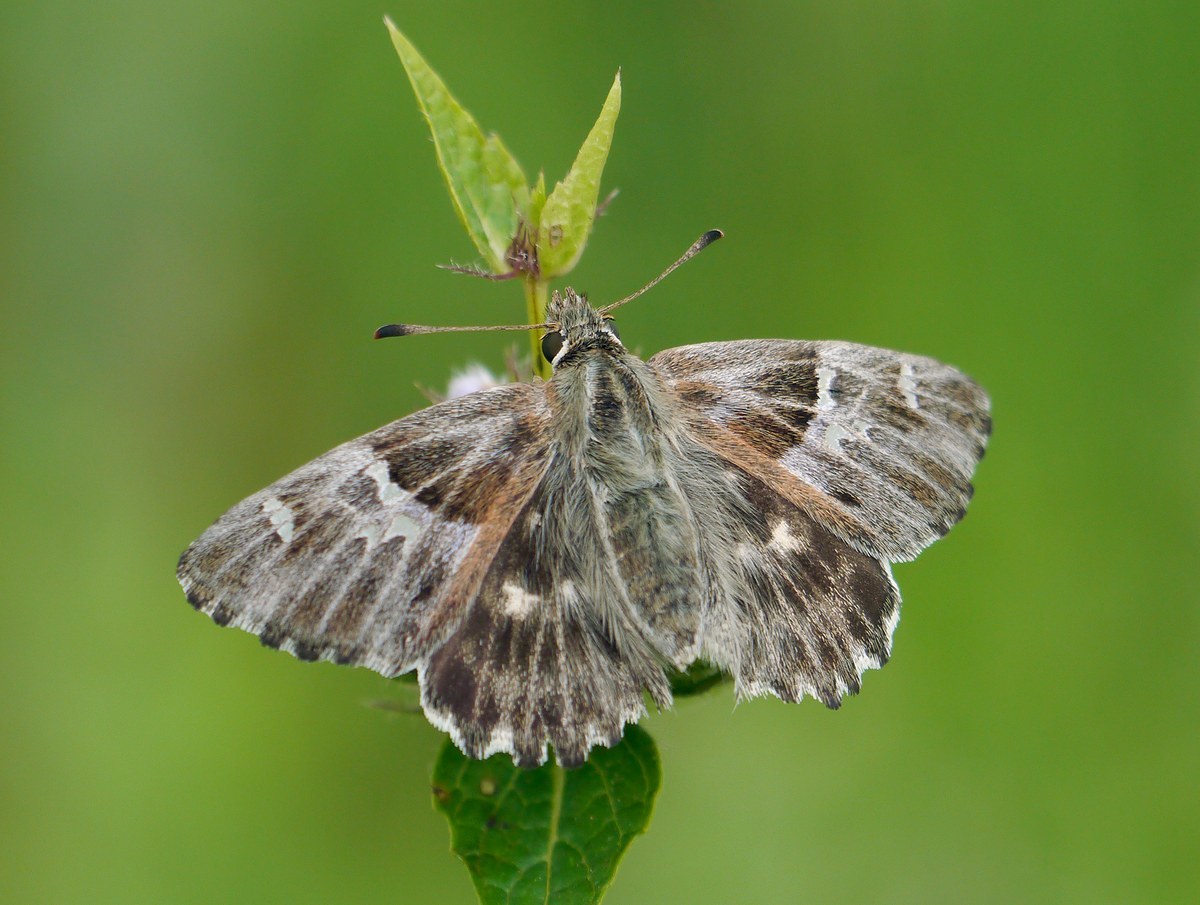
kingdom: Animalia
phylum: Arthropoda
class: Insecta
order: Lepidoptera
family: Hesperiidae
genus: Syrichtus
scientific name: Syrichtus
